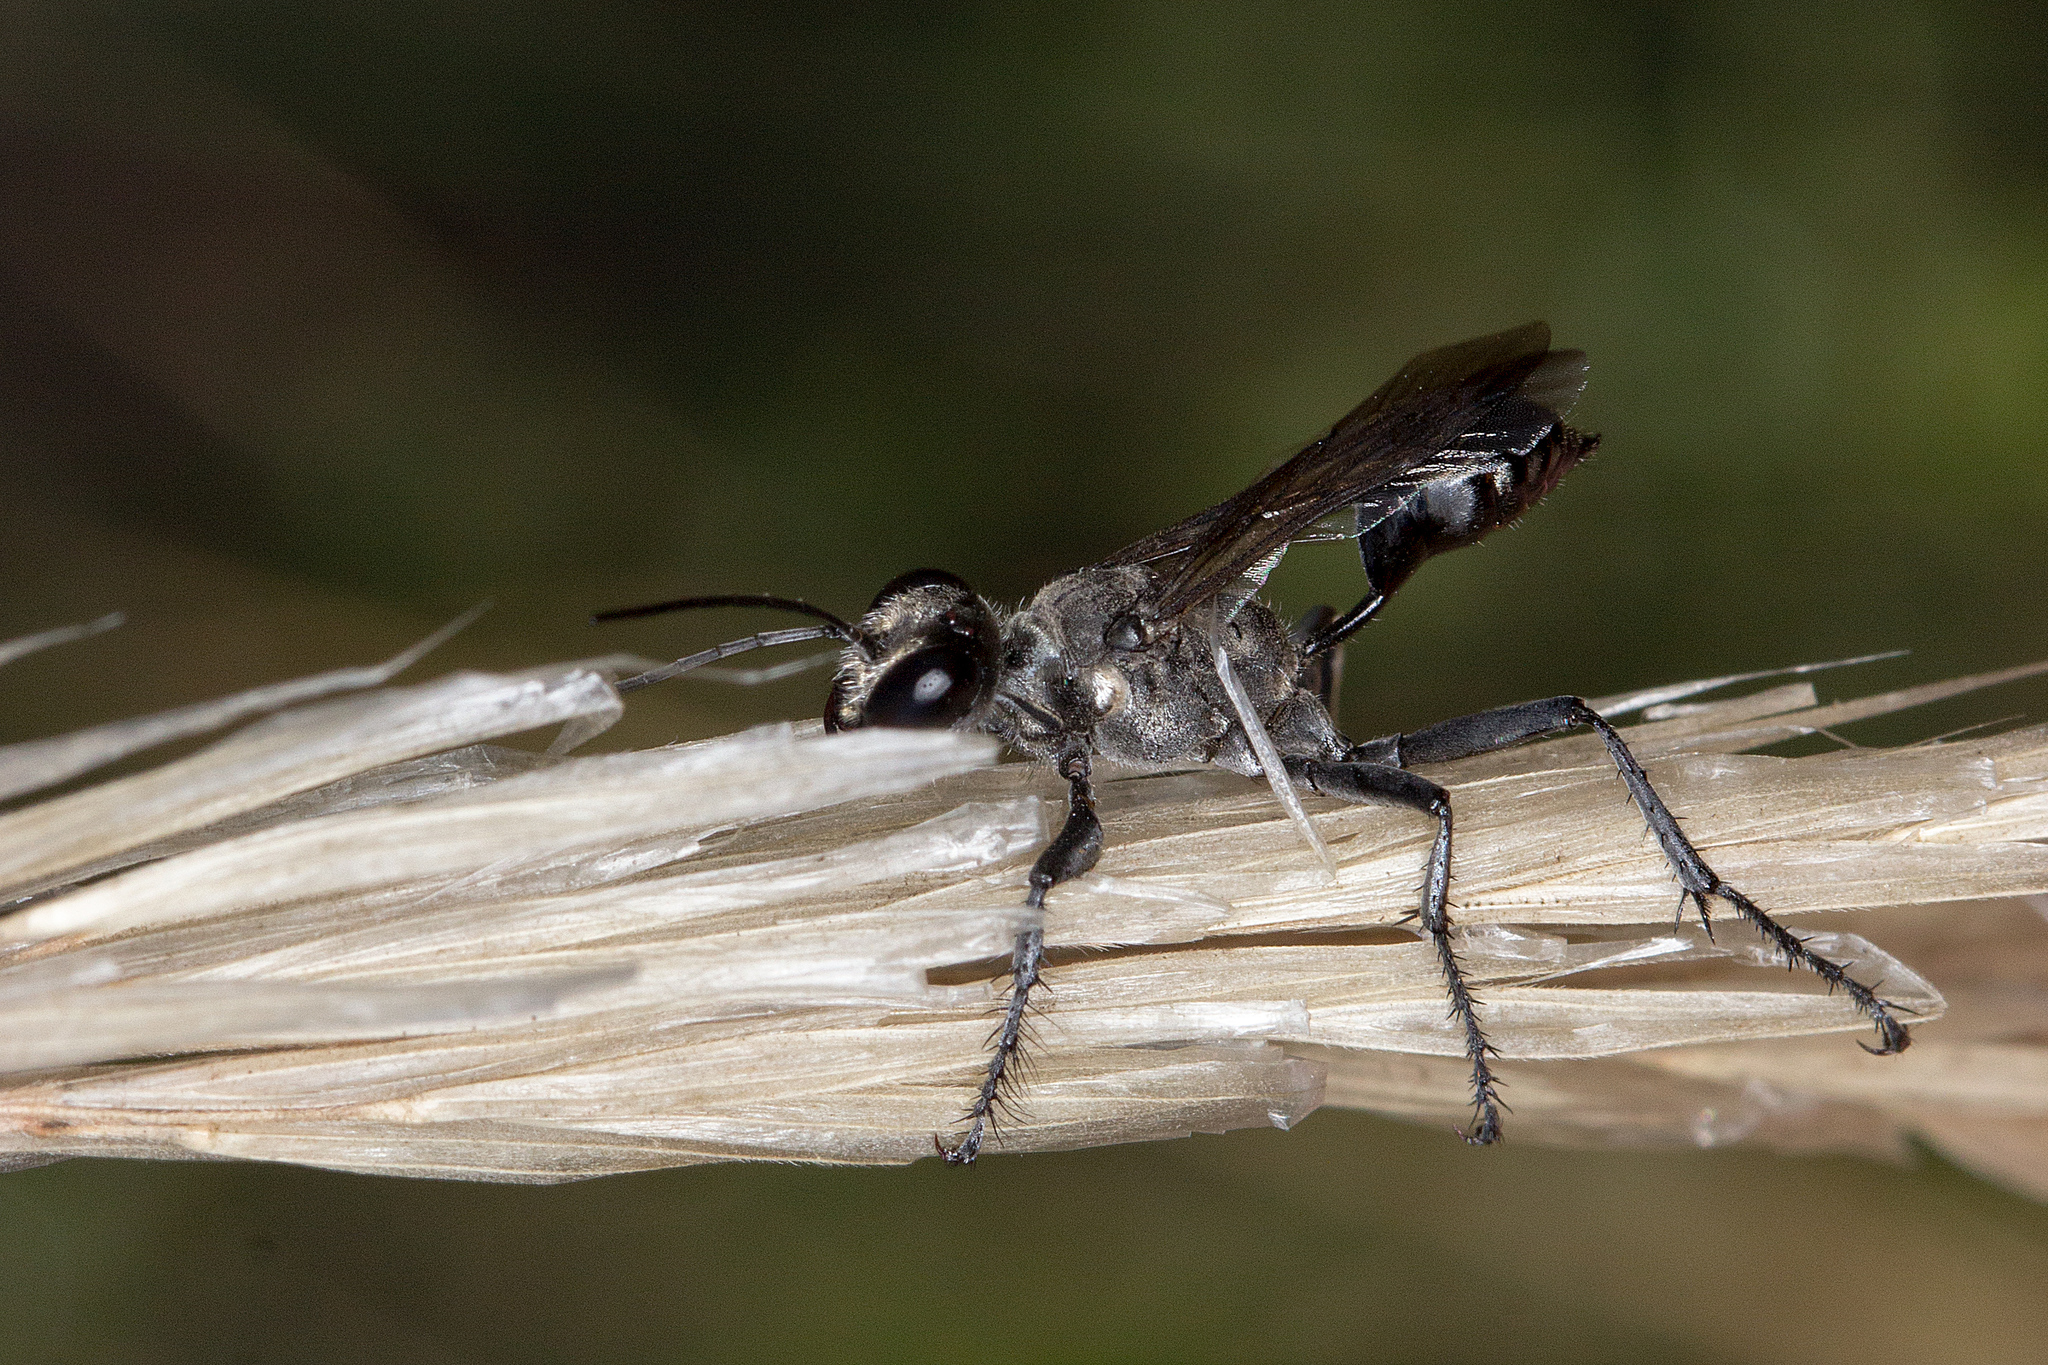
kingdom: Animalia
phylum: Arthropoda
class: Insecta
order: Hymenoptera
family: Sphecidae
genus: Prionyx
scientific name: Prionyx globosus
